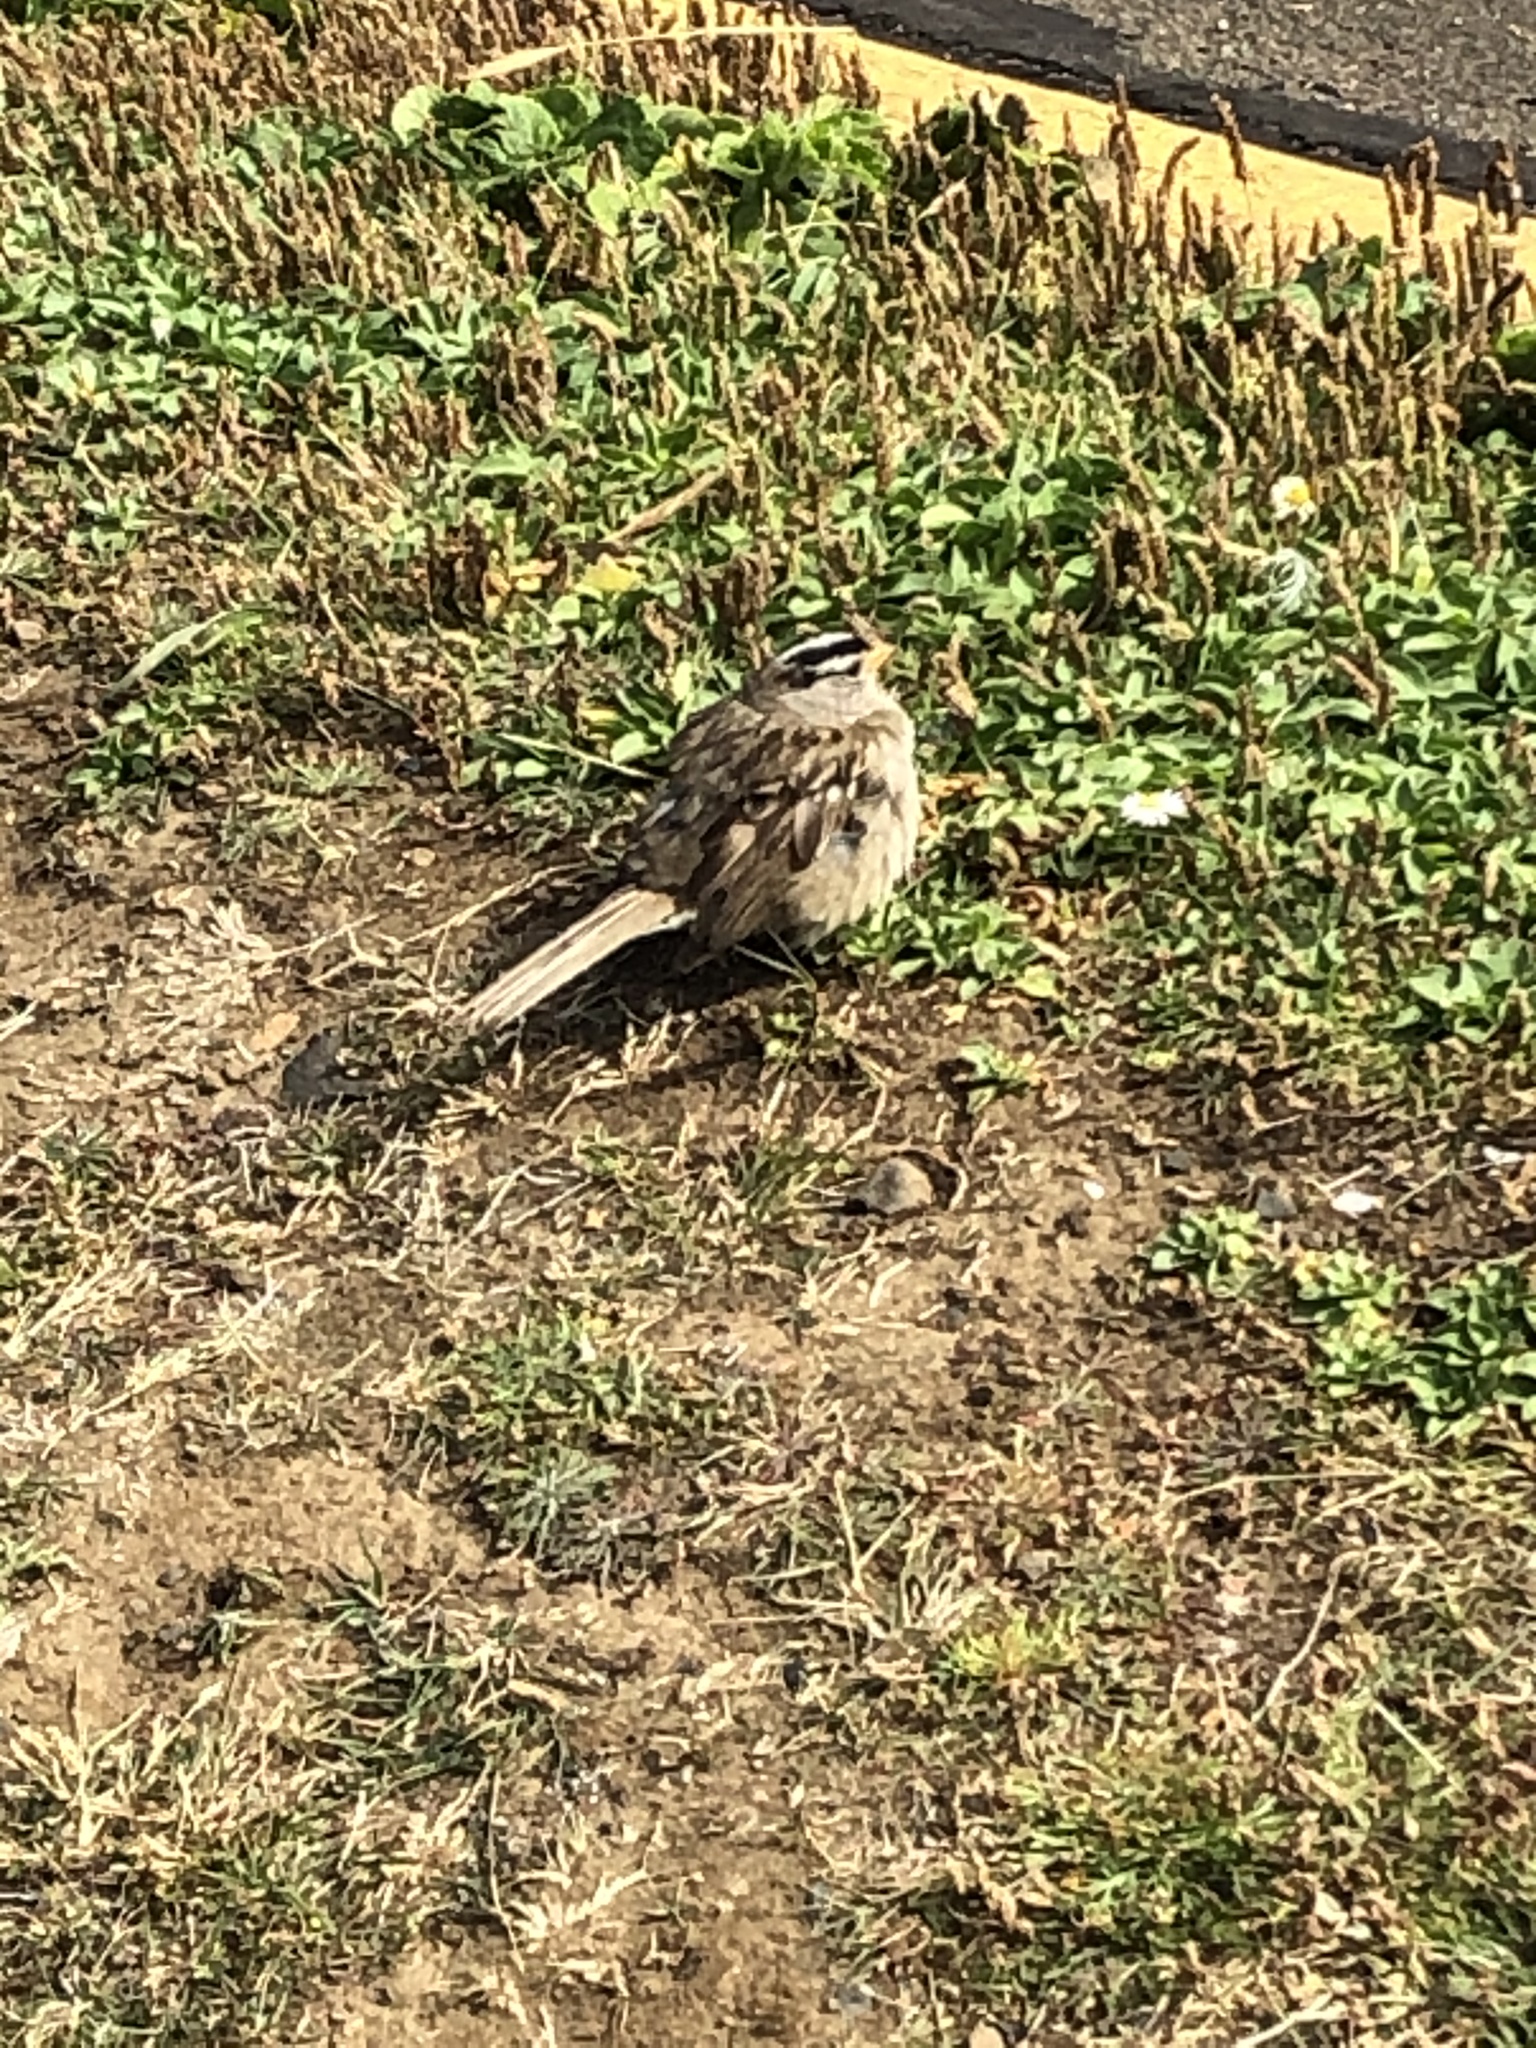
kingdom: Animalia
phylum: Chordata
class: Aves
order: Passeriformes
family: Passerellidae
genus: Zonotrichia
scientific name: Zonotrichia leucophrys
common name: White-crowned sparrow
